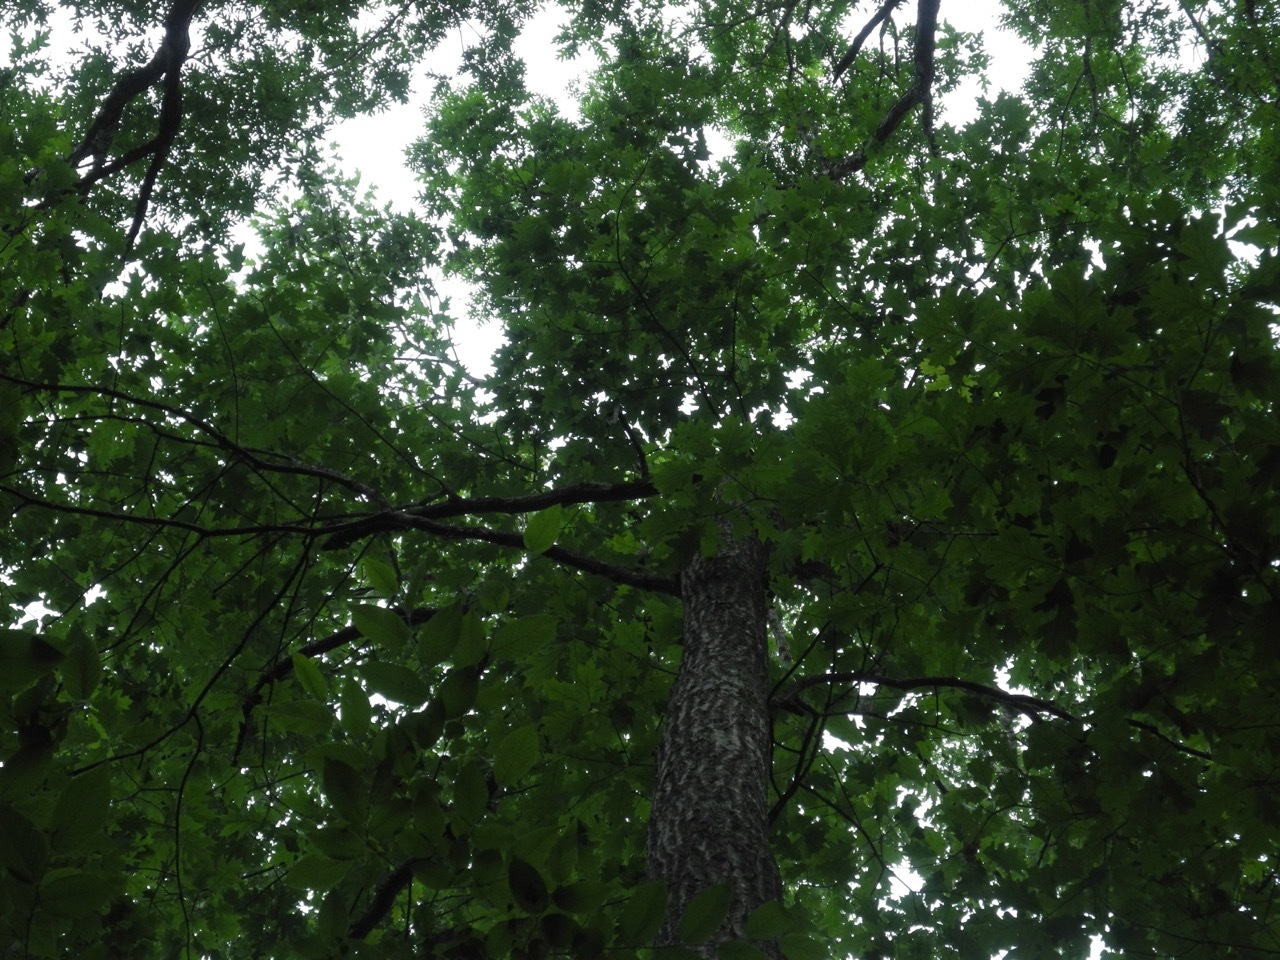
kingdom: Plantae
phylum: Tracheophyta
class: Magnoliopsida
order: Fagales
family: Fagaceae
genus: Quercus
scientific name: Quercus rubra
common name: Red oak
